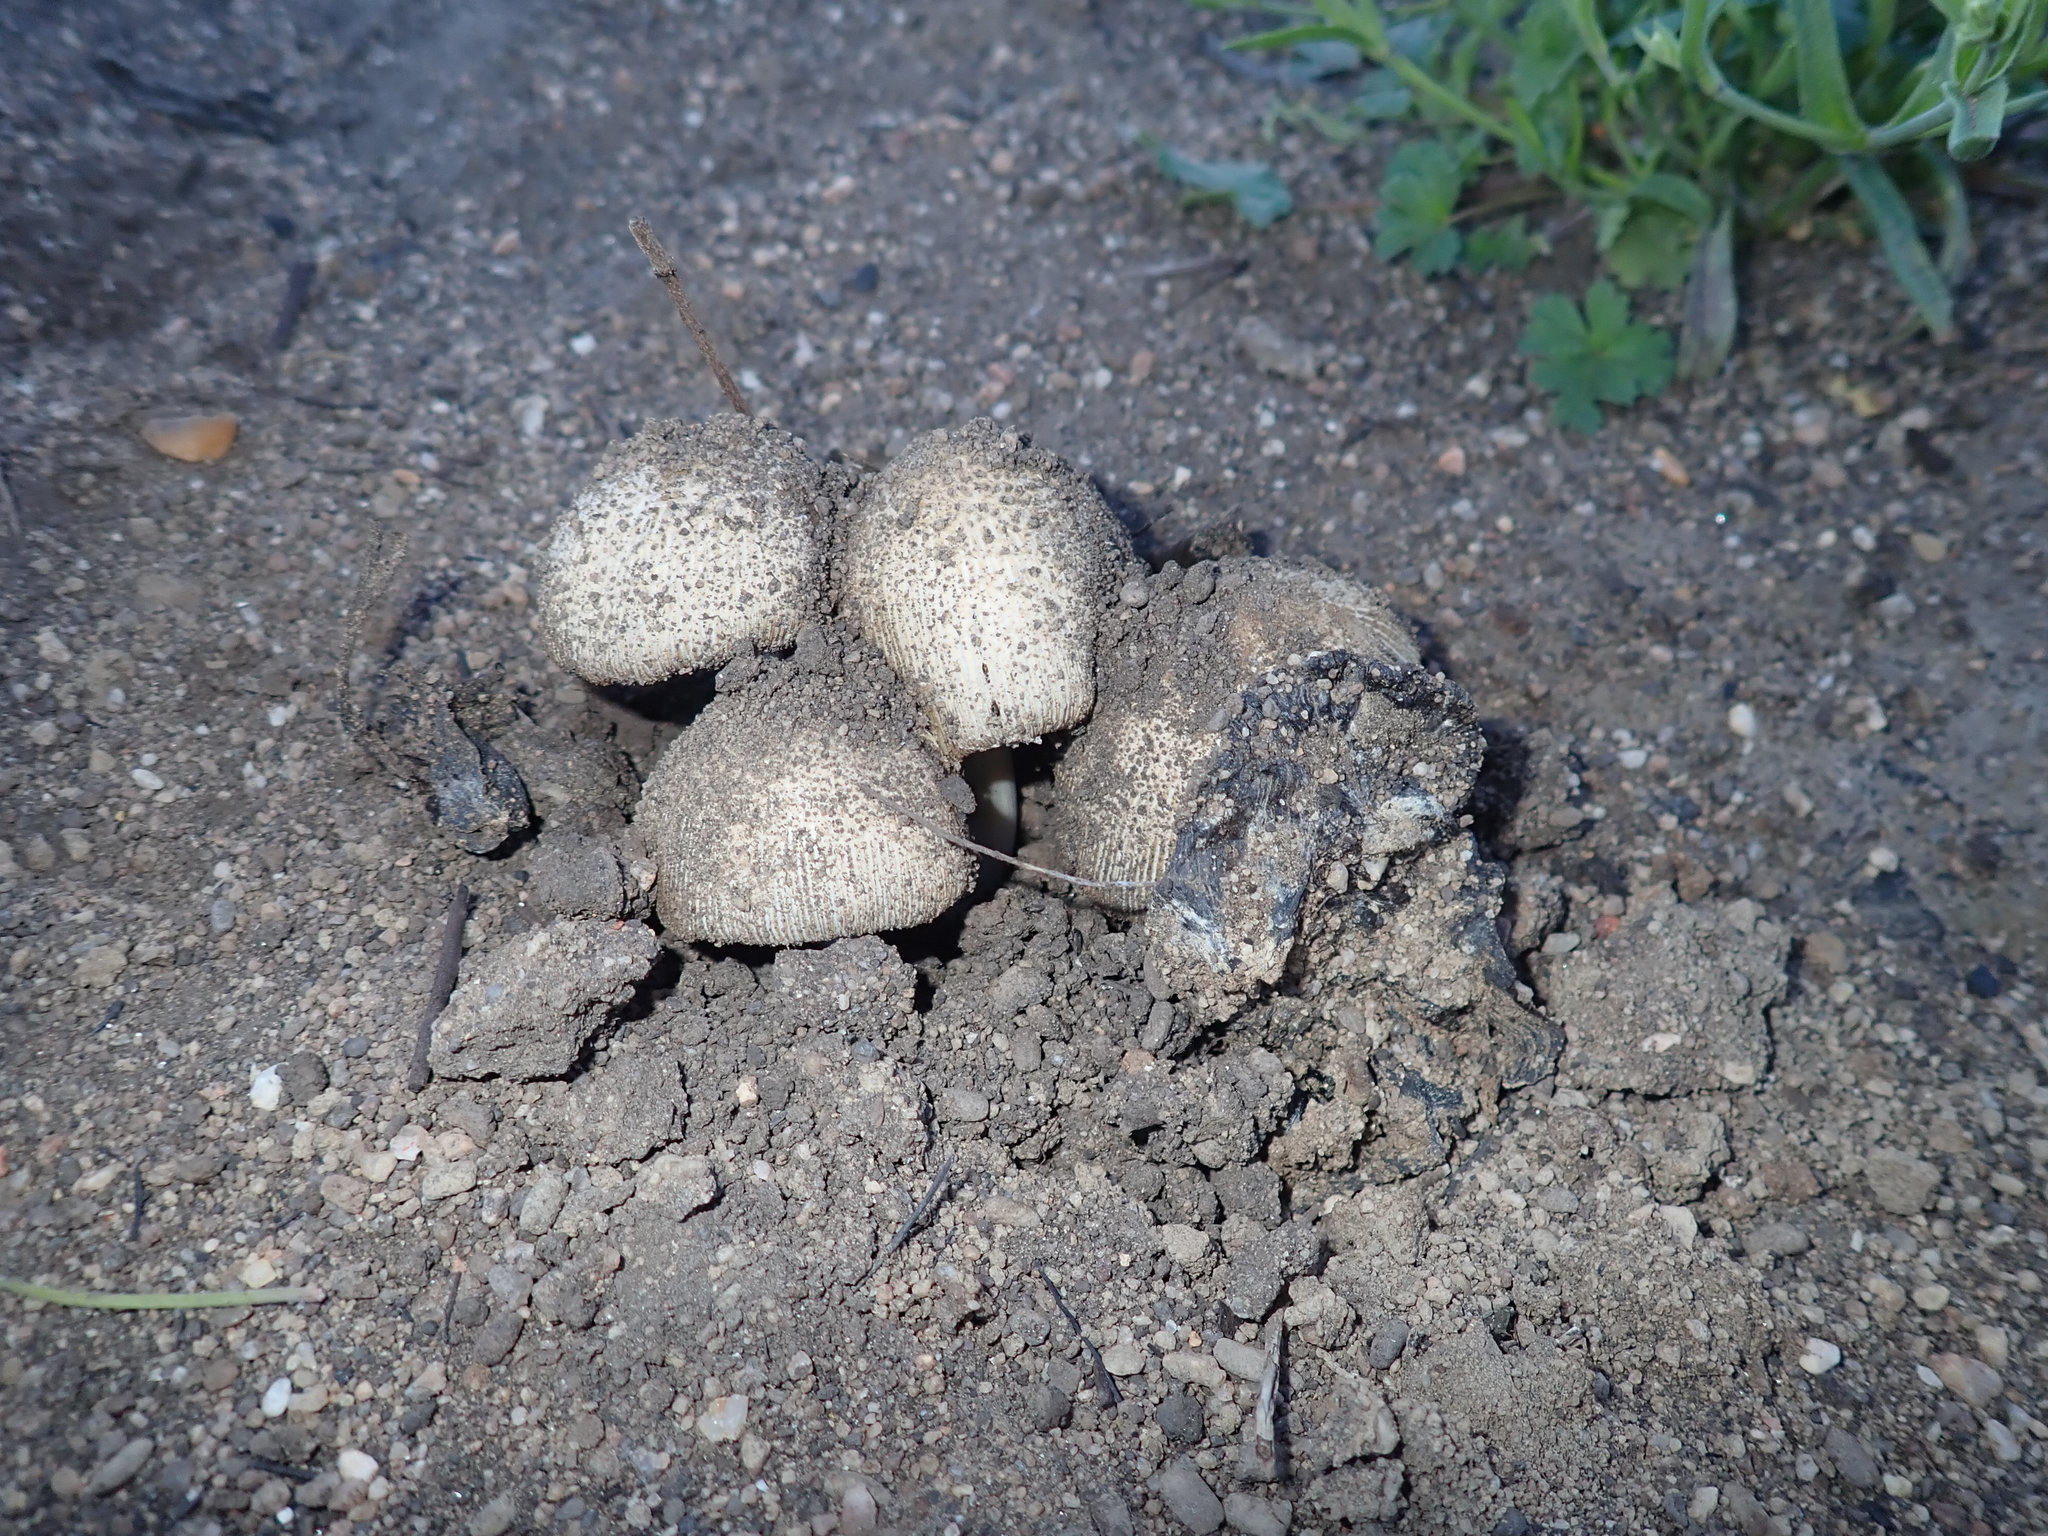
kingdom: Fungi
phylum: Basidiomycota
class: Agaricomycetes
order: Agaricales
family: Agaricaceae
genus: Coprinus
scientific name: Coprinus comatus
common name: Lawyer's wig
